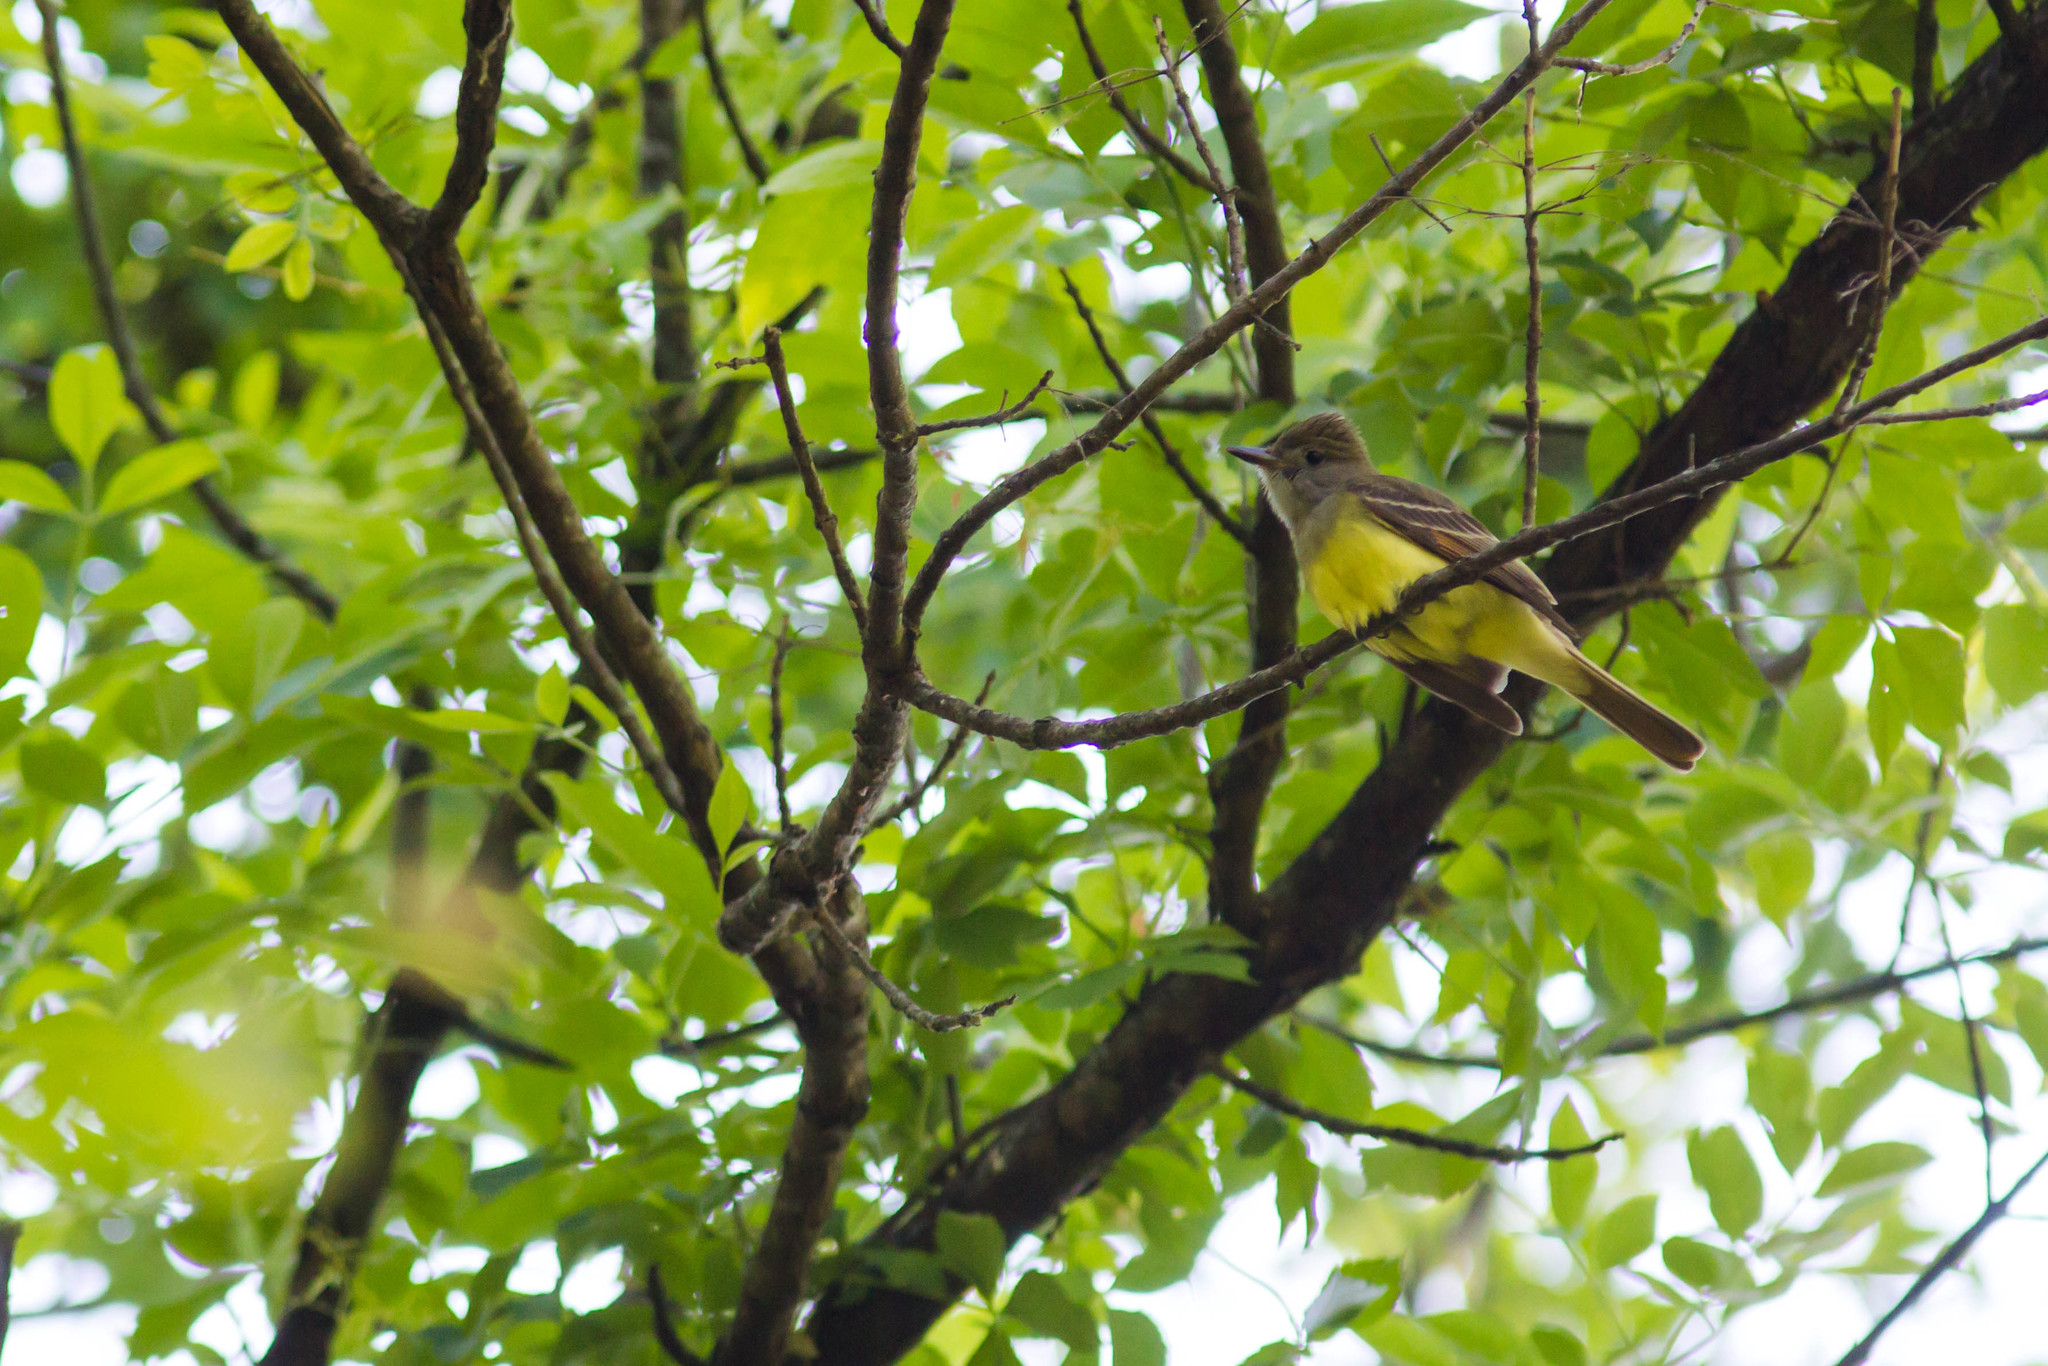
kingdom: Animalia
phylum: Chordata
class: Aves
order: Passeriformes
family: Tyrannidae
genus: Myiarchus
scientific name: Myiarchus crinitus
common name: Great crested flycatcher
